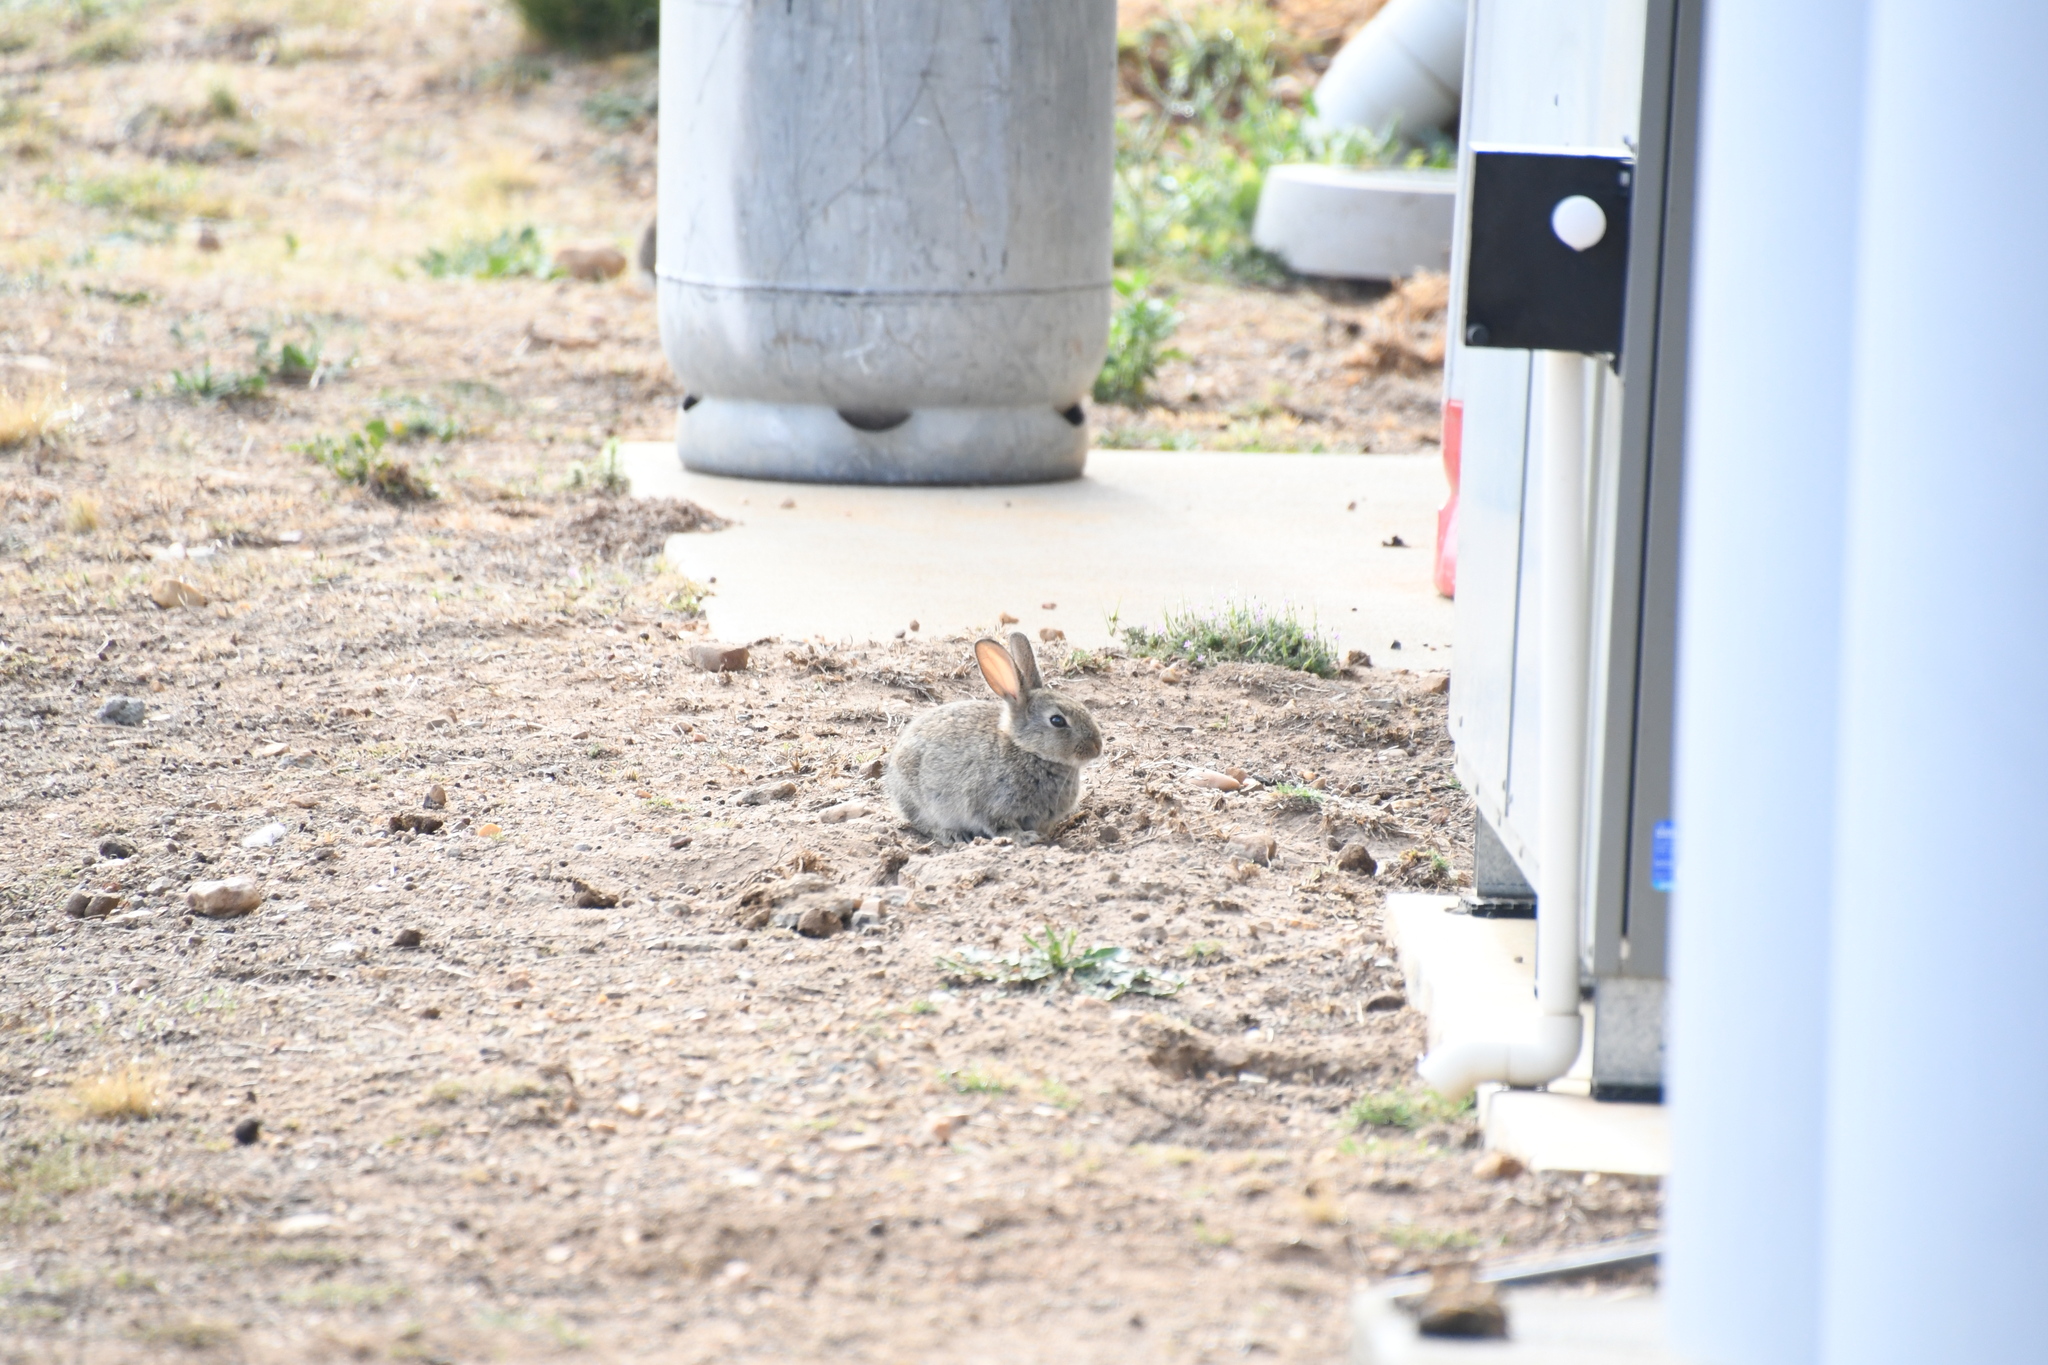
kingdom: Animalia
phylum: Chordata
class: Mammalia
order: Lagomorpha
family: Leporidae
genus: Oryctolagus
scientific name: Oryctolagus cuniculus
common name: European rabbit
